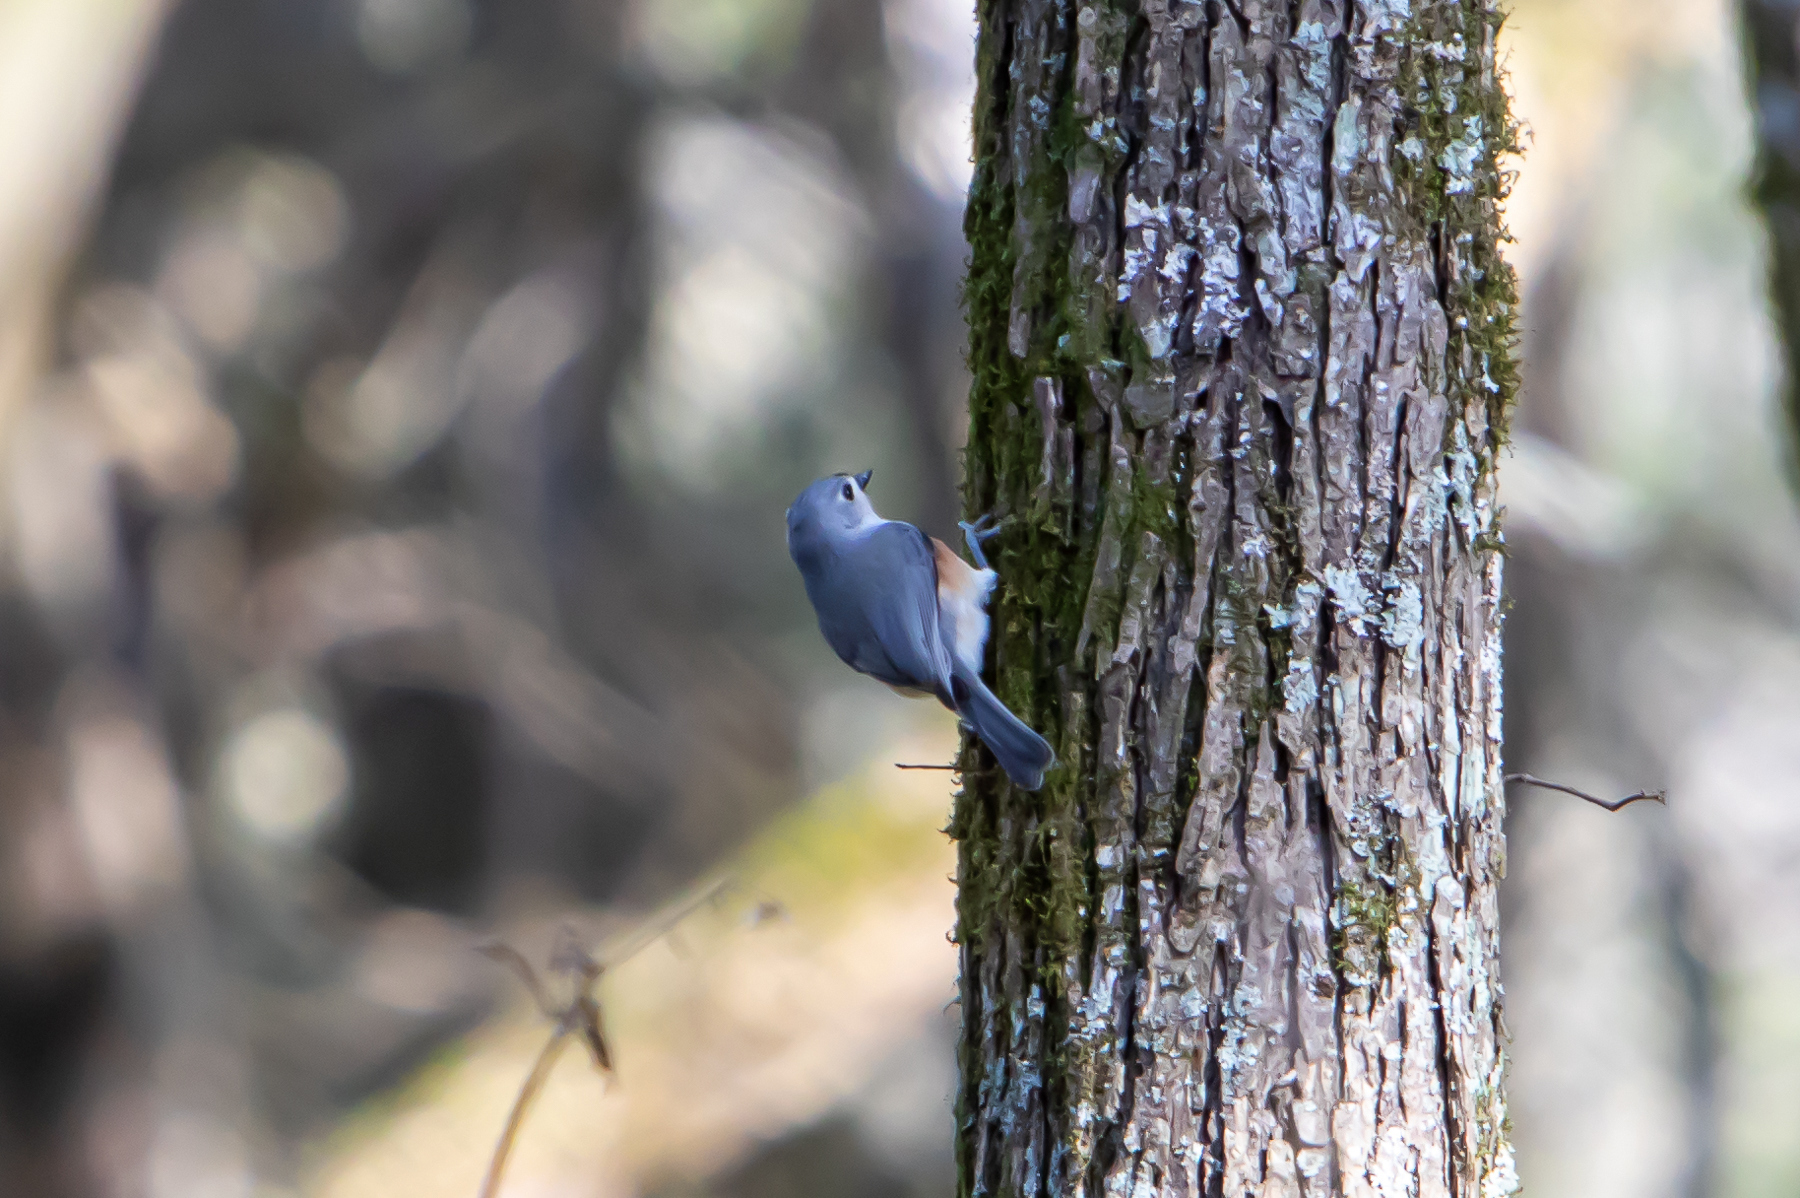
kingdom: Animalia
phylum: Chordata
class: Aves
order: Passeriformes
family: Paridae
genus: Baeolophus
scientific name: Baeolophus bicolor
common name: Tufted titmouse
